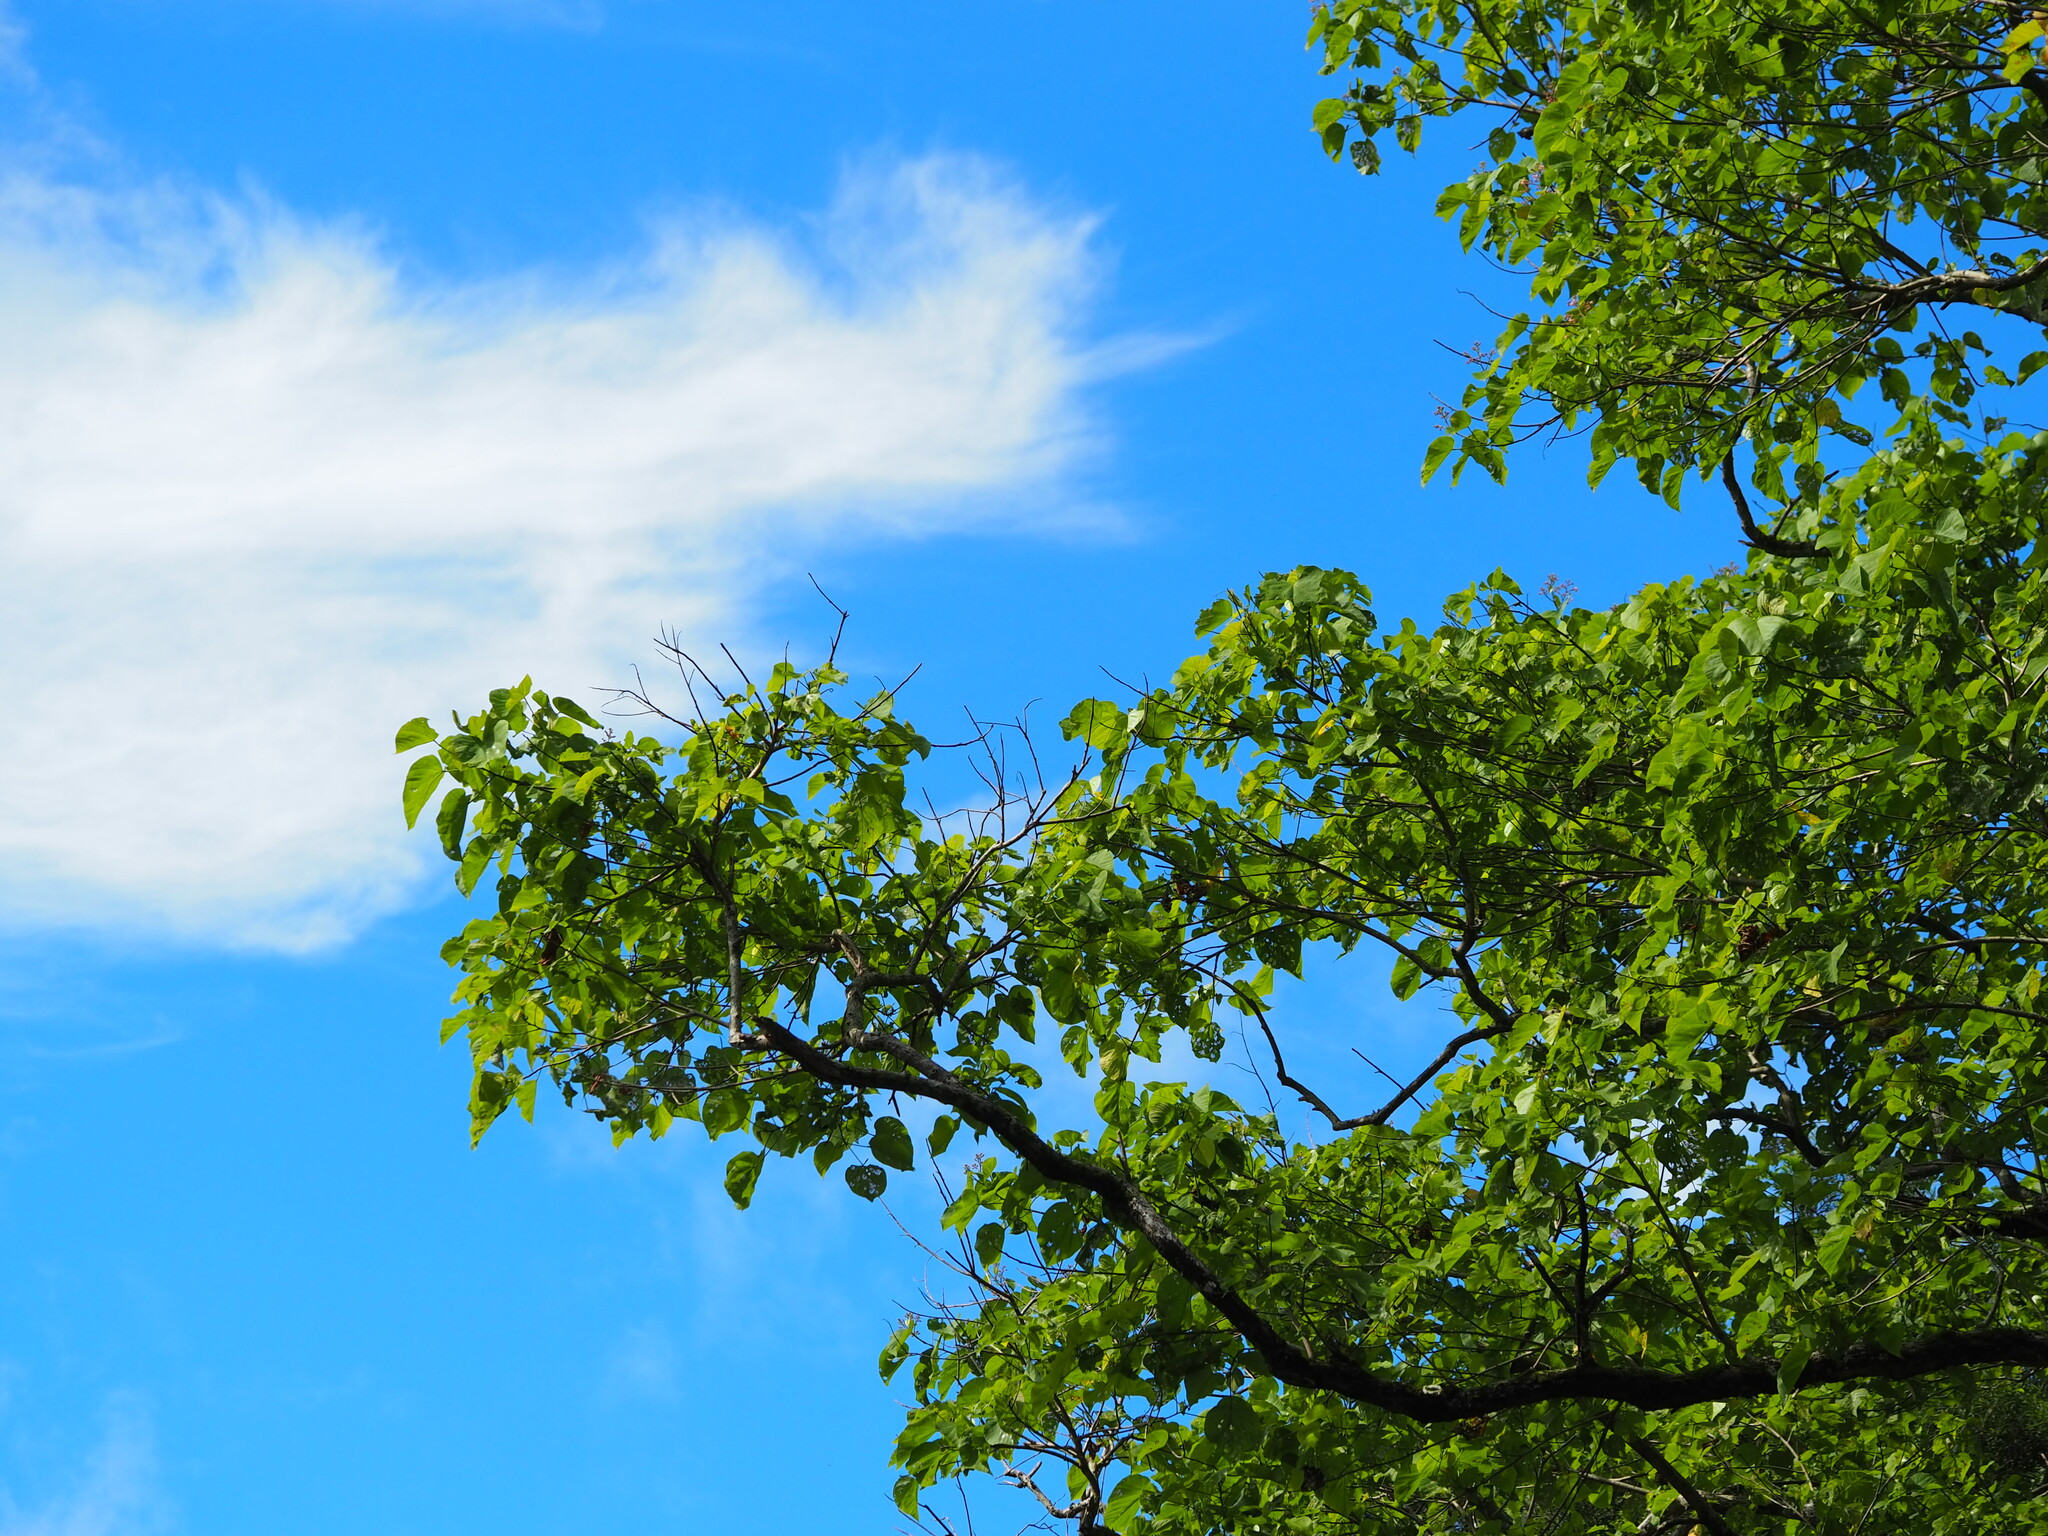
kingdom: Plantae
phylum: Tracheophyta
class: Magnoliopsida
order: Malvales
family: Malvaceae
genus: Kleinhovia
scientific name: Kleinhovia hospita
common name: Guest-tree
